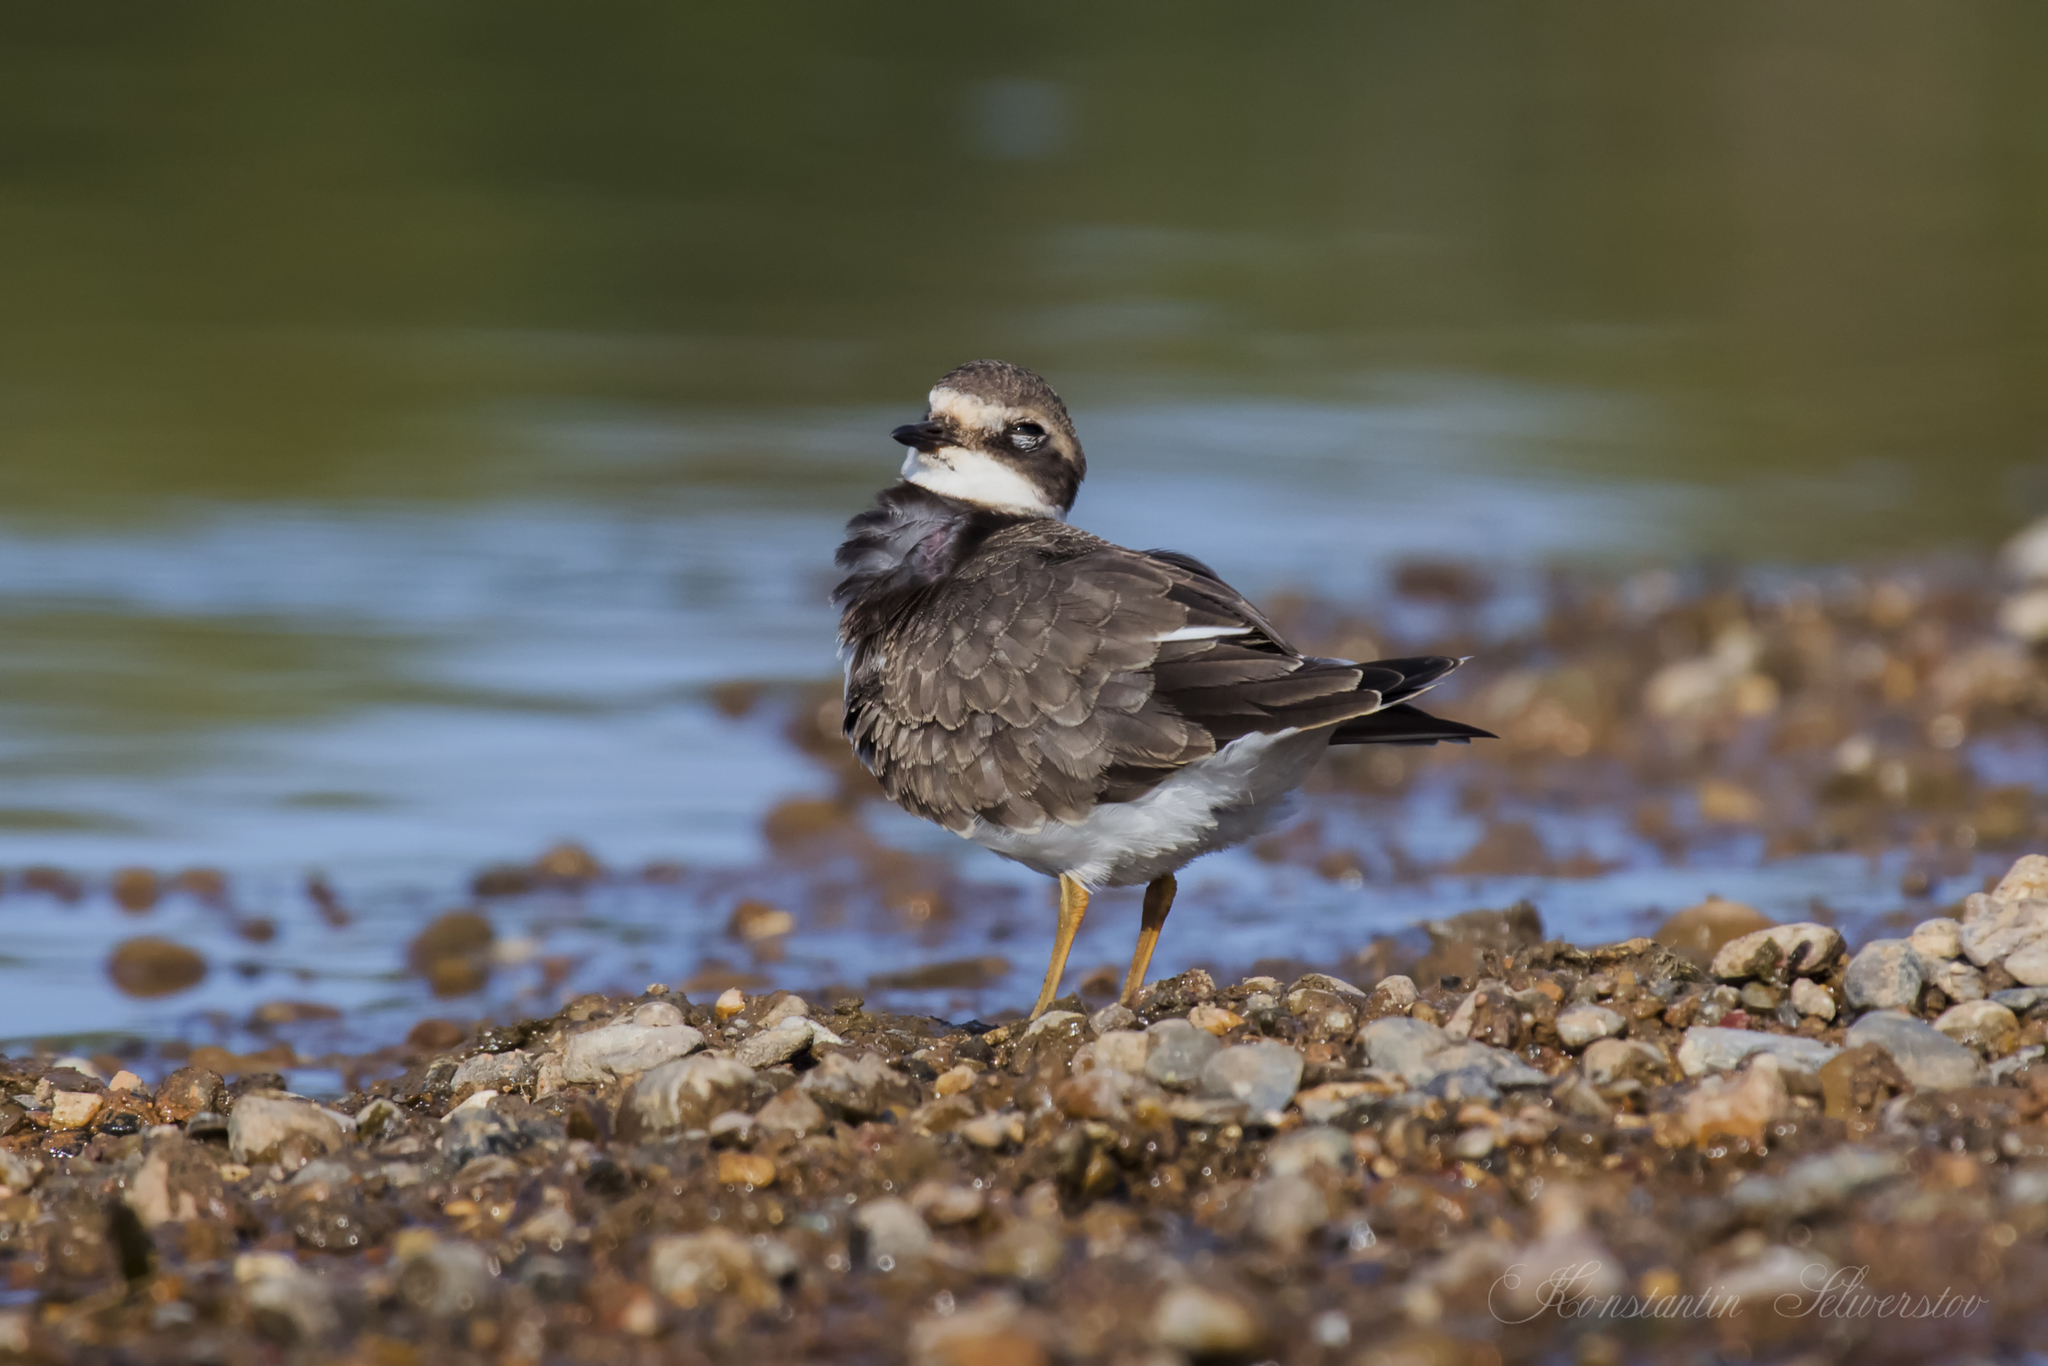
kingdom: Animalia
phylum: Chordata
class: Aves
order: Charadriiformes
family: Charadriidae
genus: Charadrius
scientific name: Charadrius hiaticula
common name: Common ringed plover
